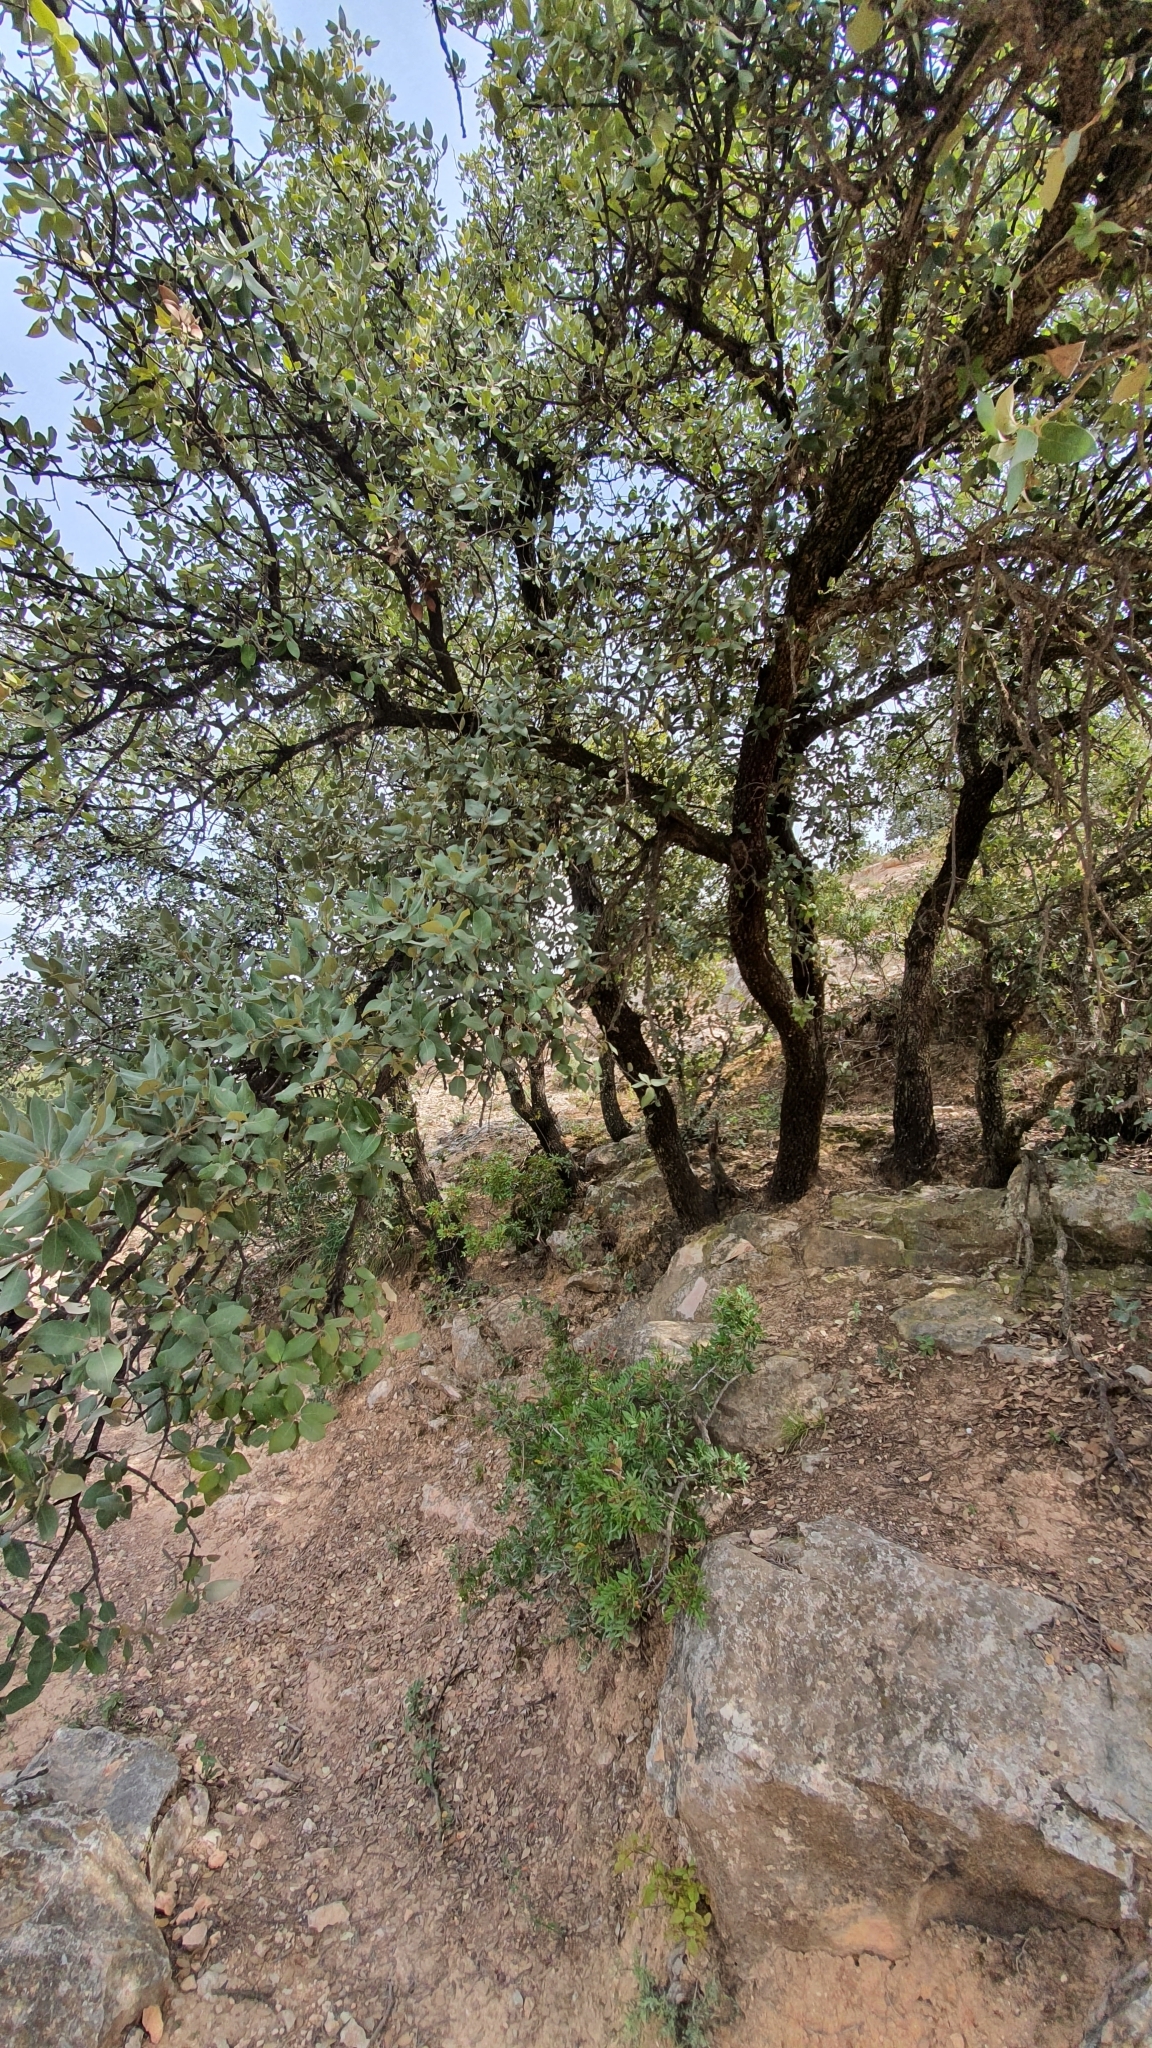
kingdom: Plantae
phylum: Tracheophyta
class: Magnoliopsida
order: Fagales
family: Fagaceae
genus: Quercus
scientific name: Quercus rotundifolia
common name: Holm oak
